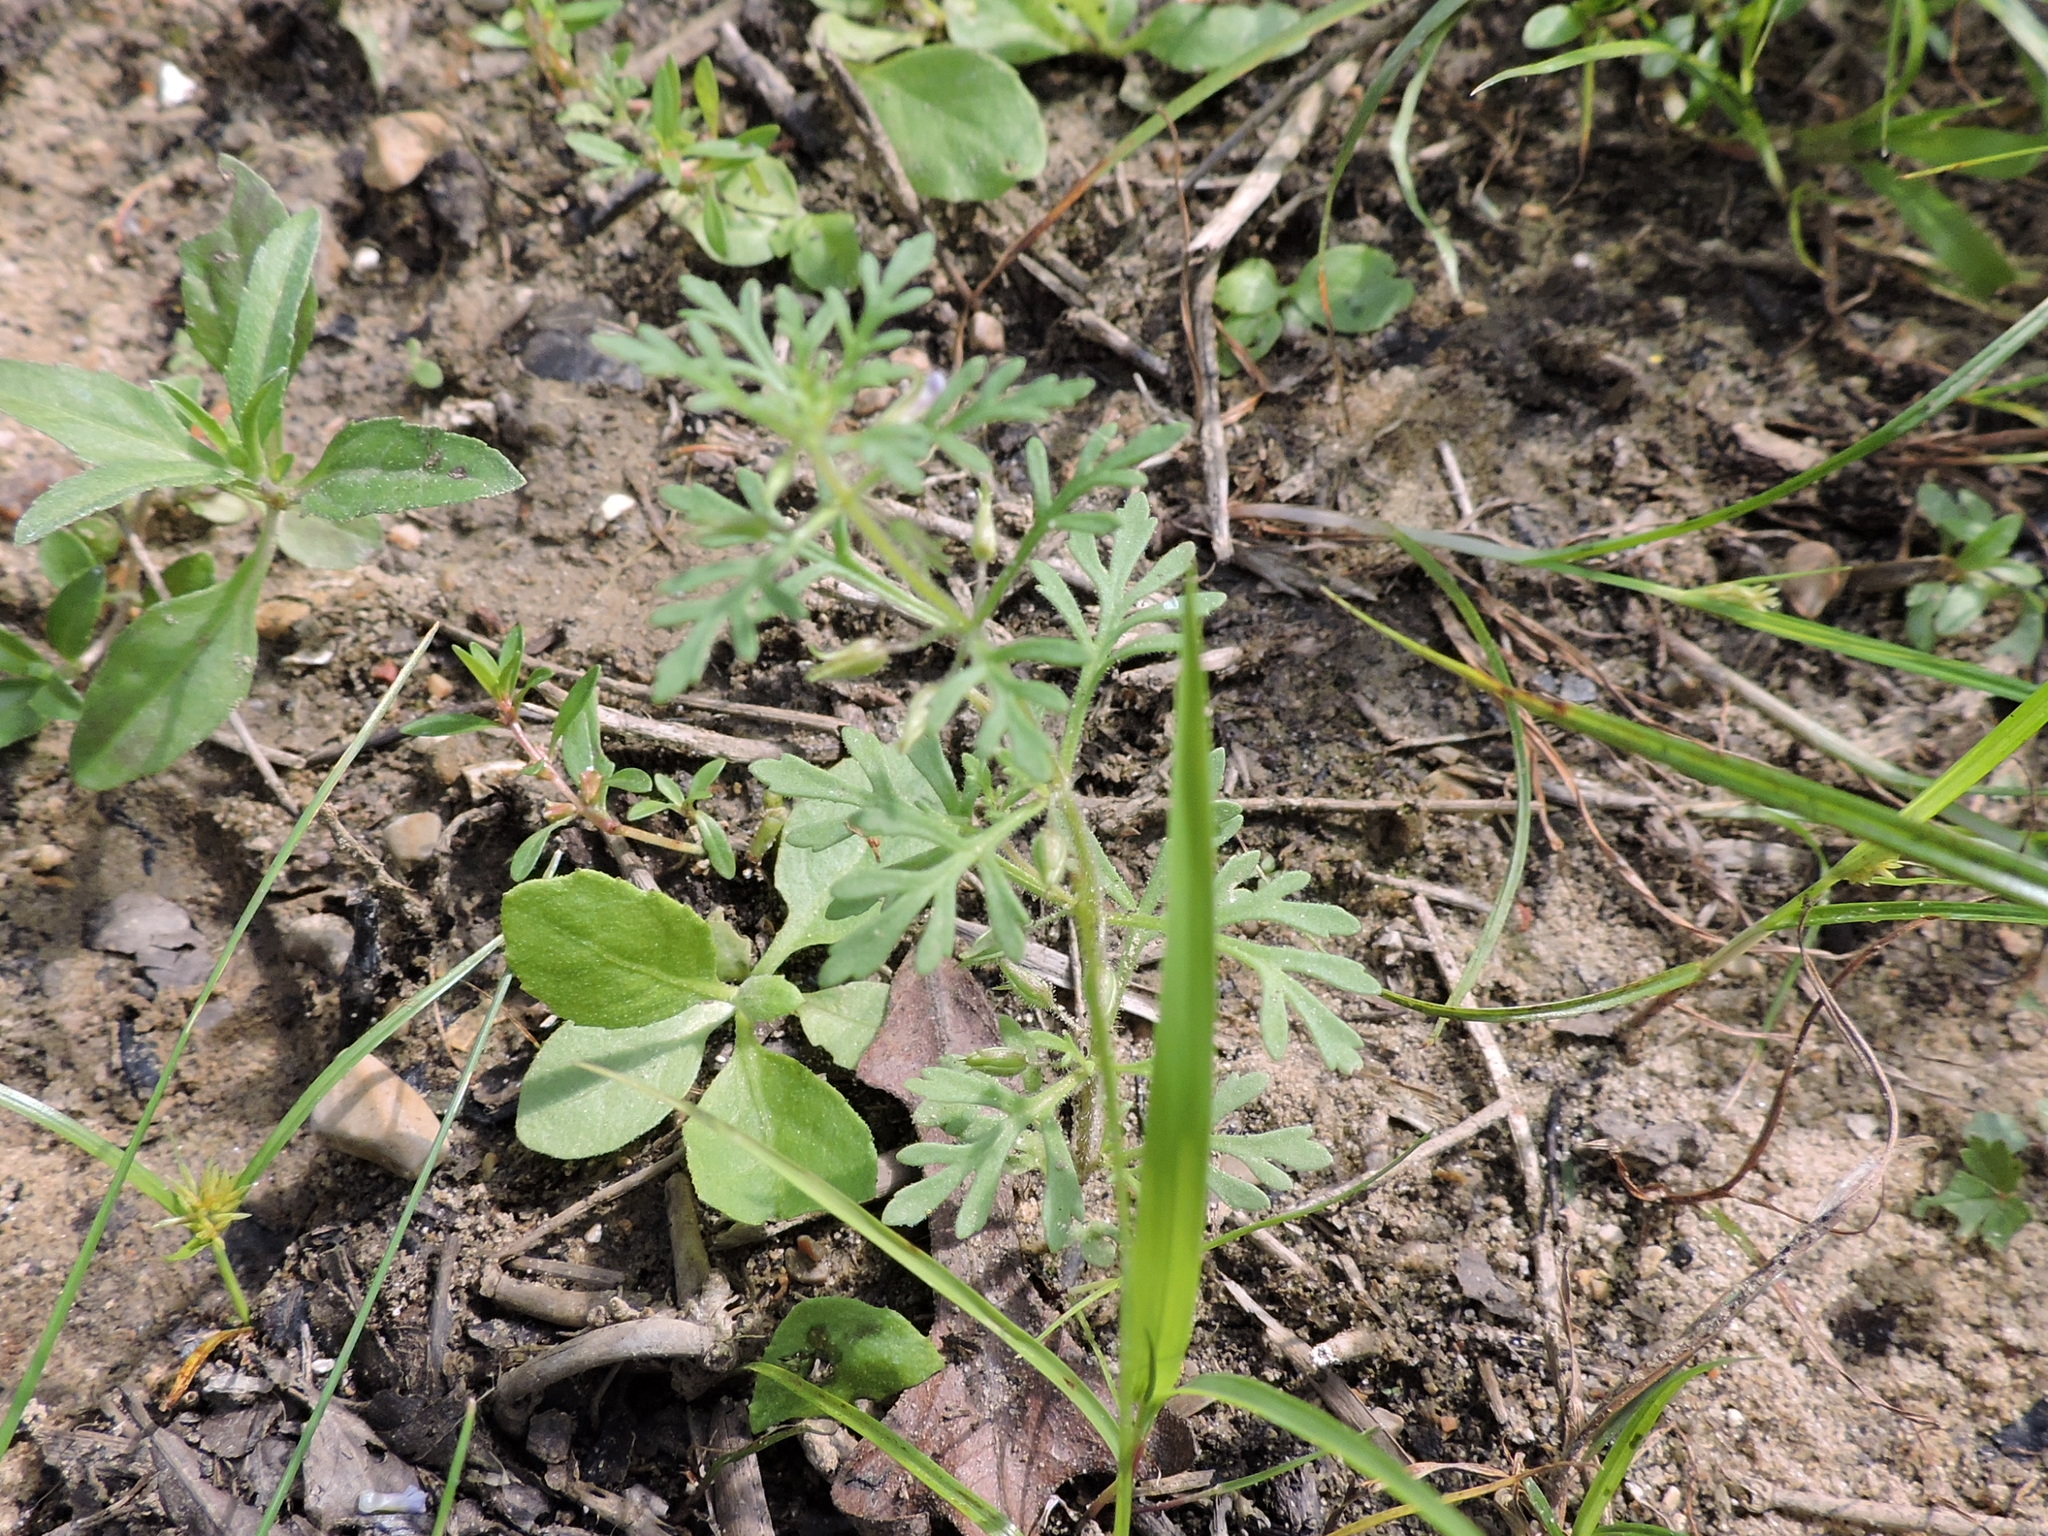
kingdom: Plantae
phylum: Tracheophyta
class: Magnoliopsida
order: Lamiales
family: Plantaginaceae
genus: Leucospora
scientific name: Leucospora multifida
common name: Narrow-leaf paleseed
